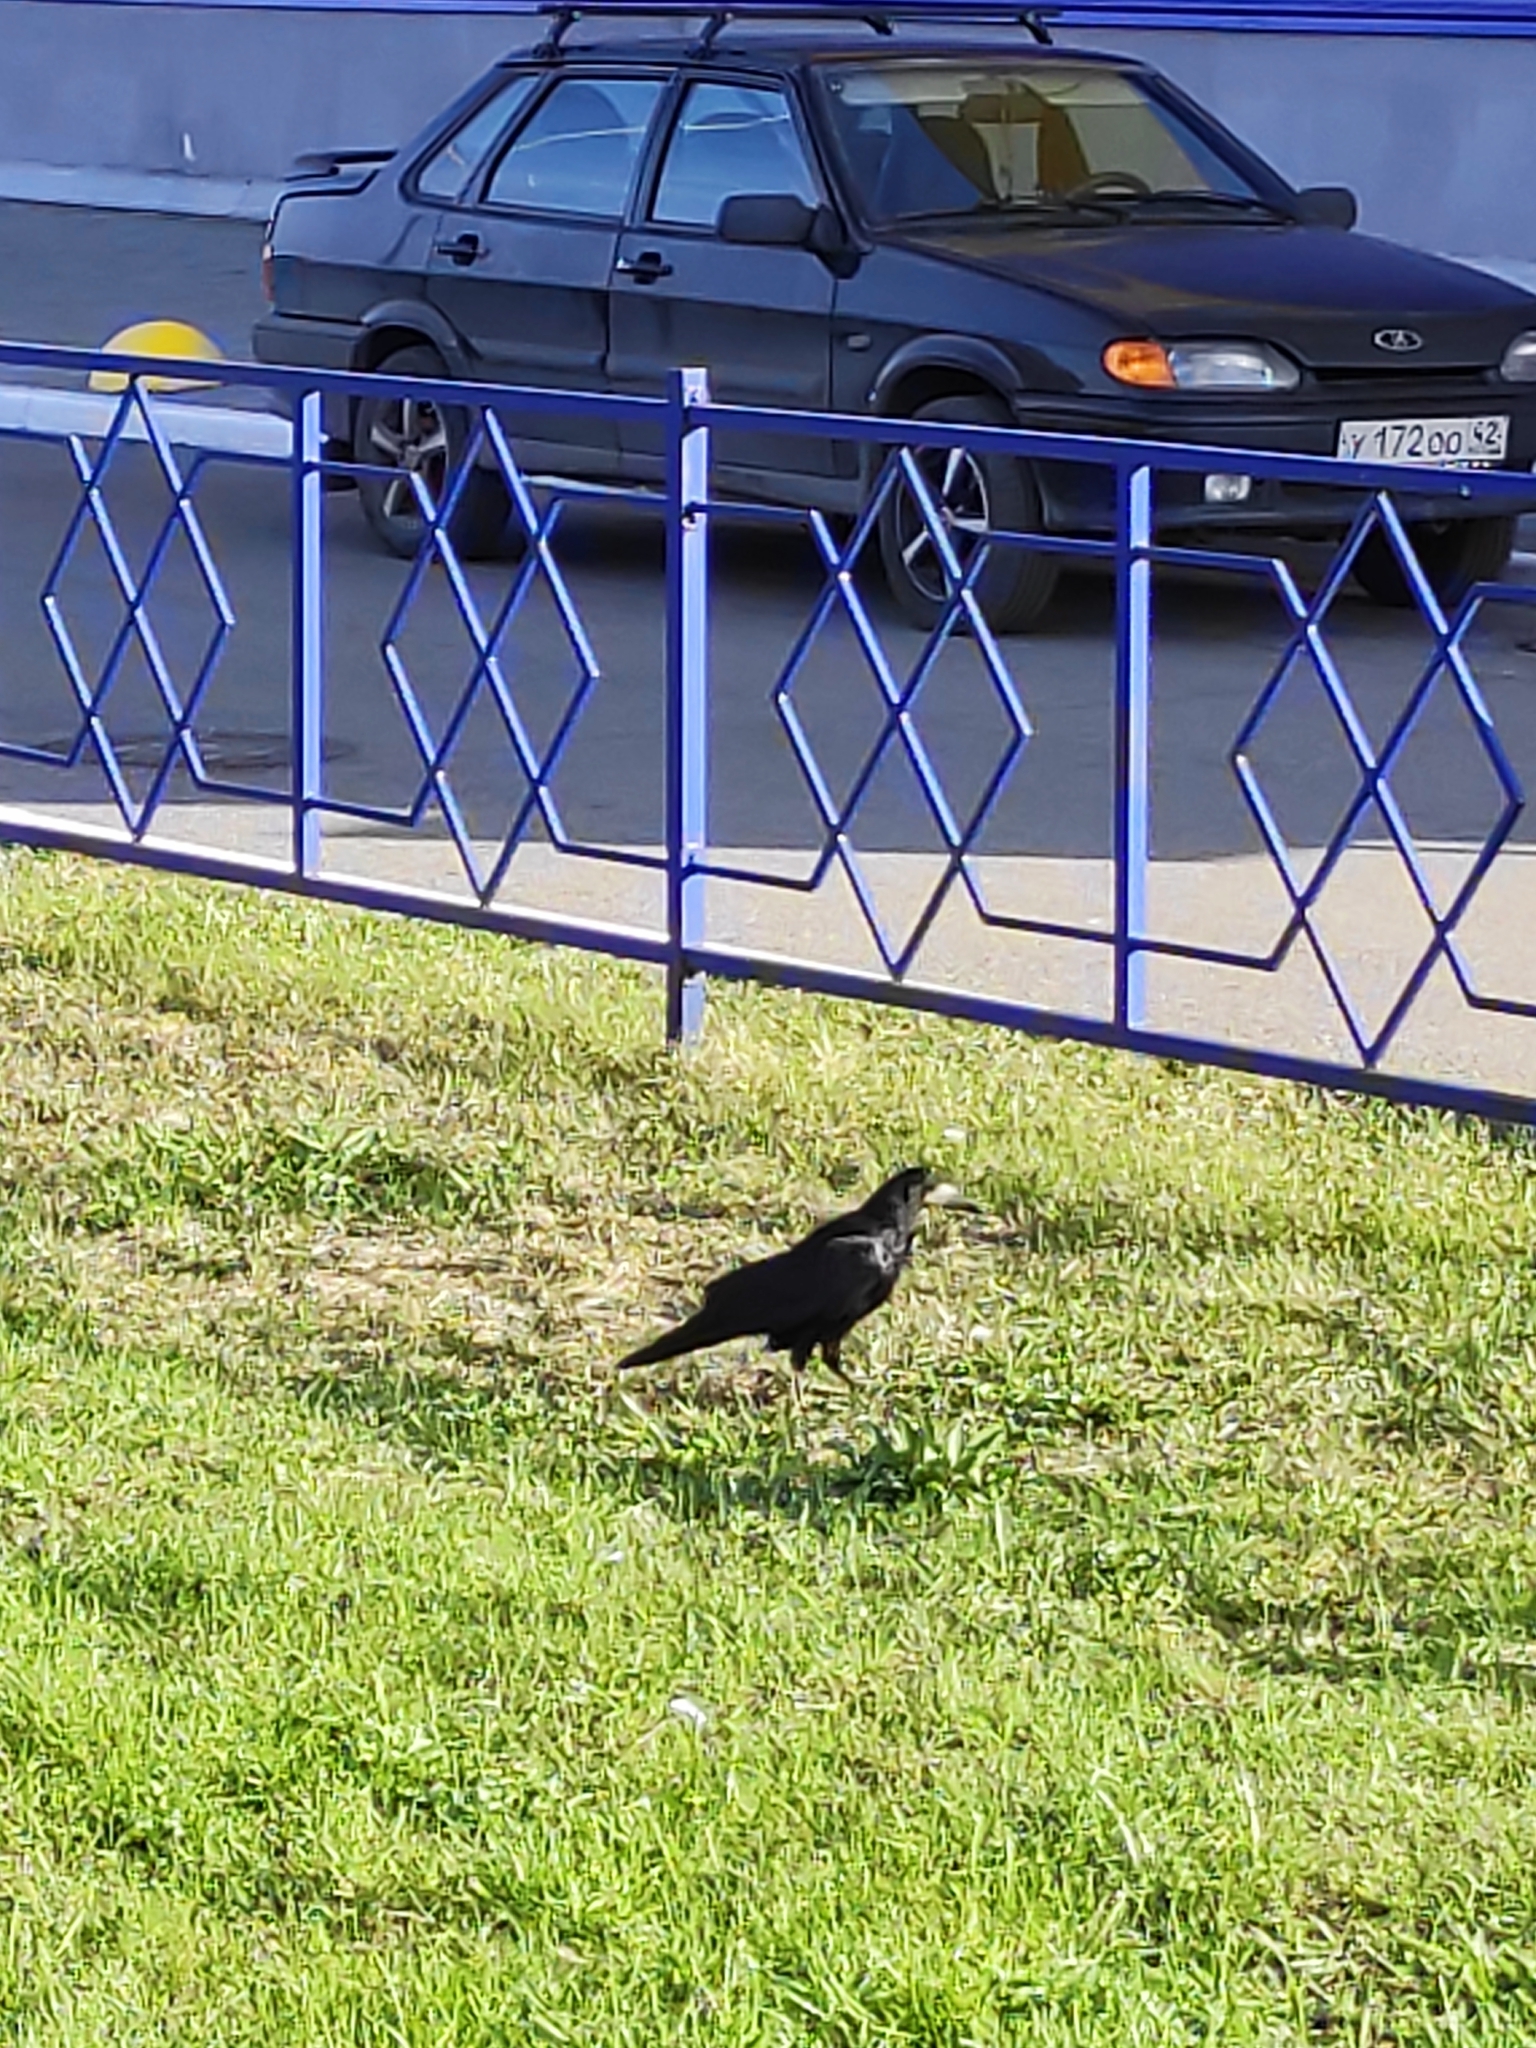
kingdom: Animalia
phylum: Chordata
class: Aves
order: Passeriformes
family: Corvidae
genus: Corvus
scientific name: Corvus frugilegus
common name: Rook
